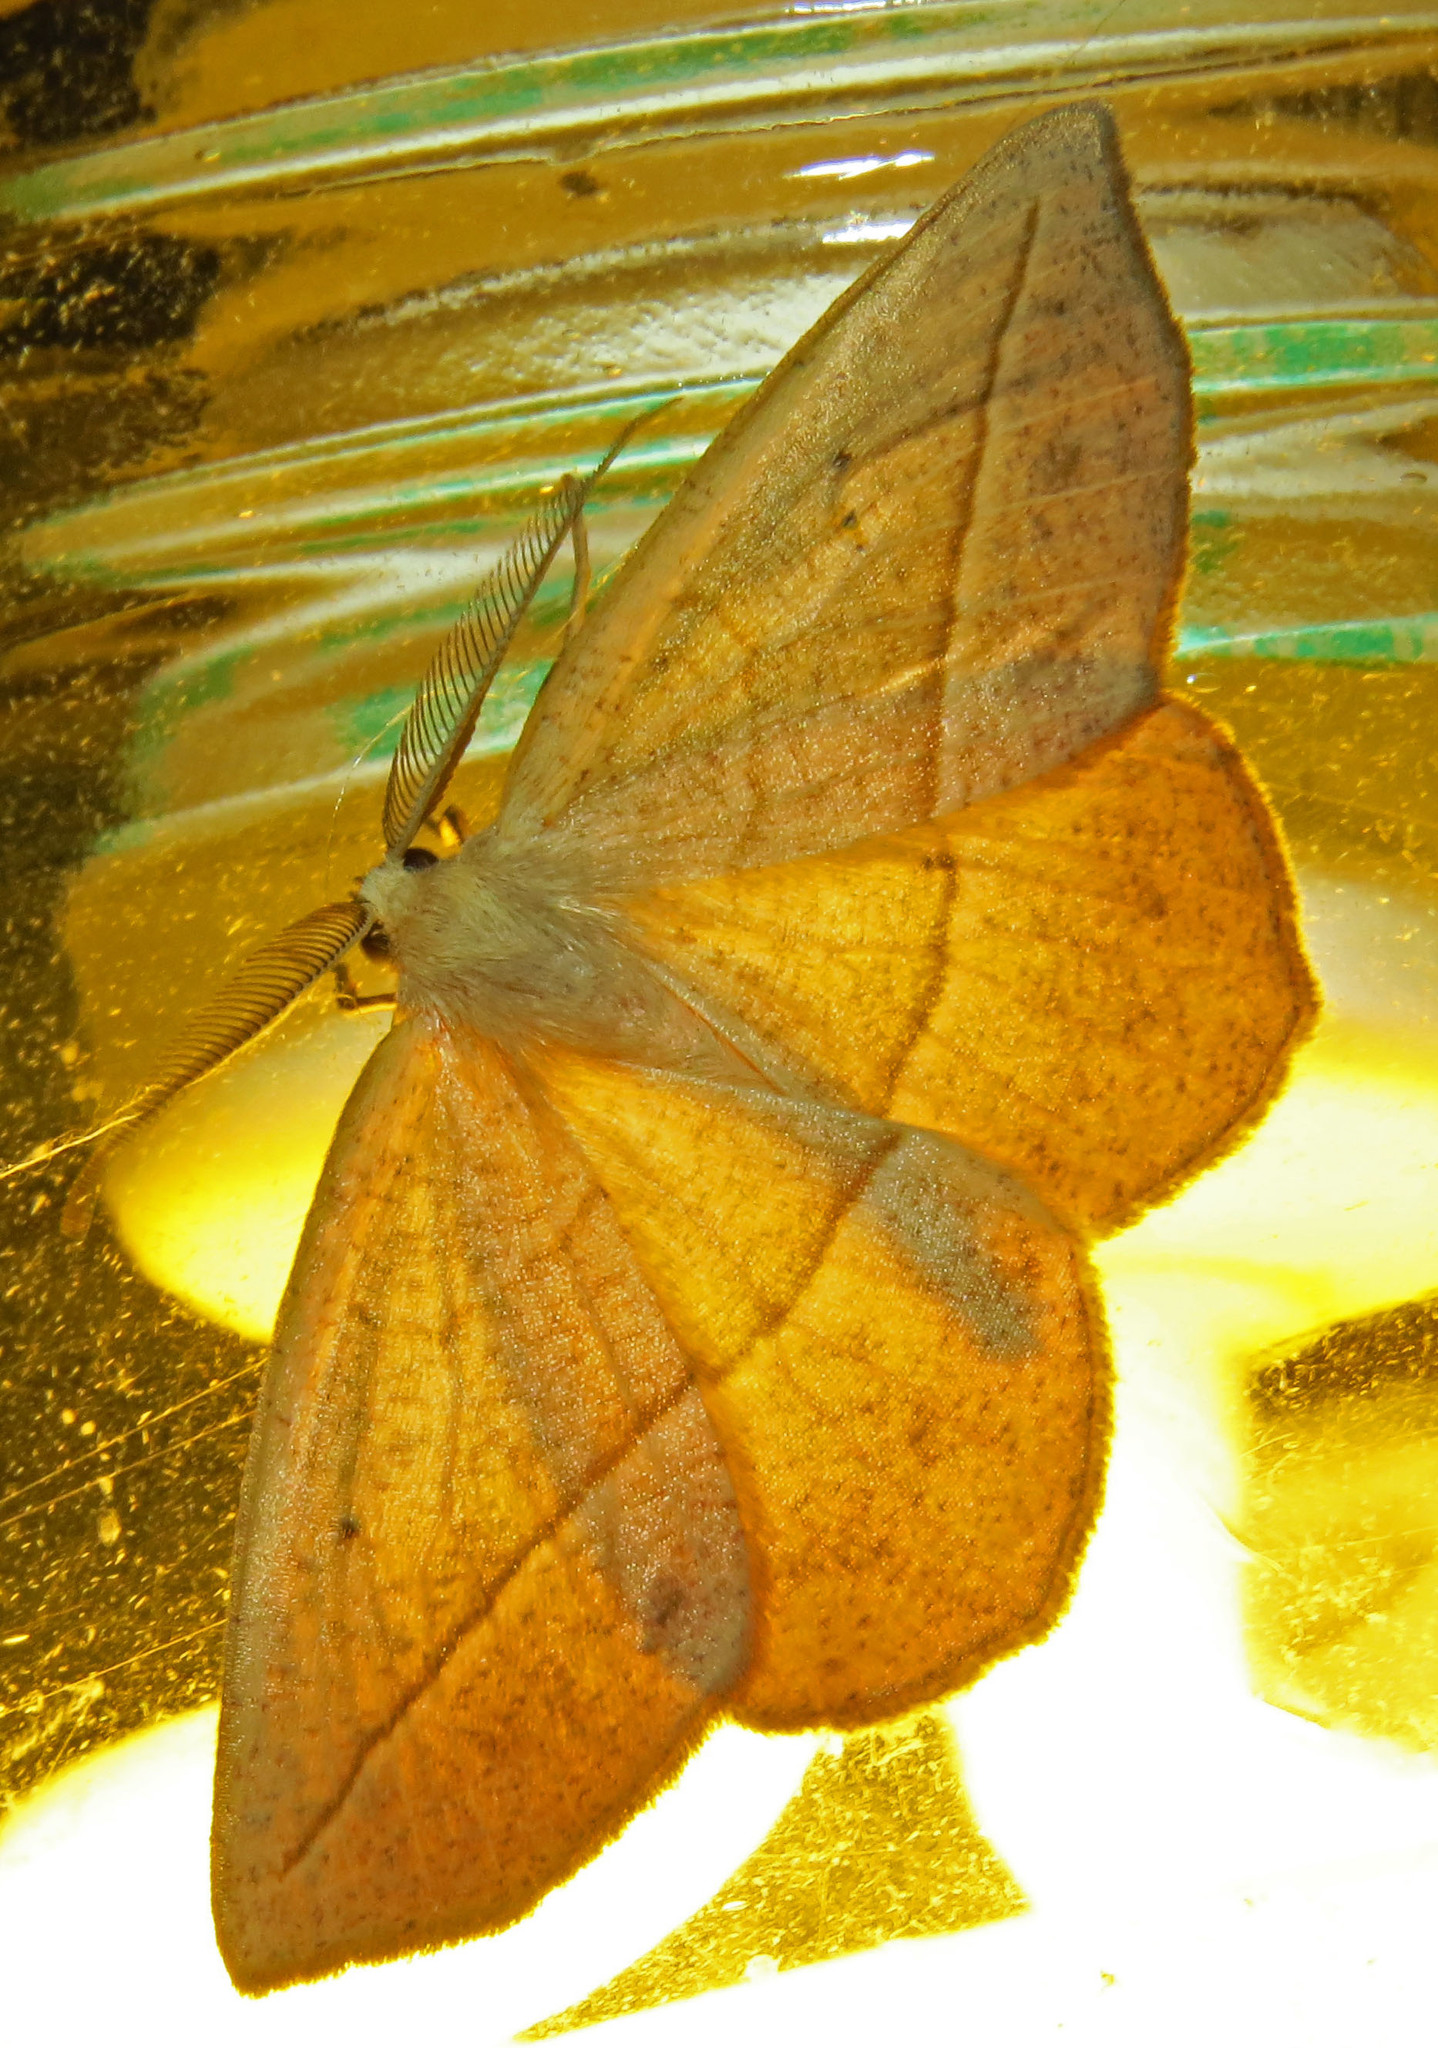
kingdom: Animalia
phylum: Arthropoda
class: Insecta
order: Lepidoptera
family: Geometridae
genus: Eusarca
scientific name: Eusarca confusaria
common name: Confused eusarca
